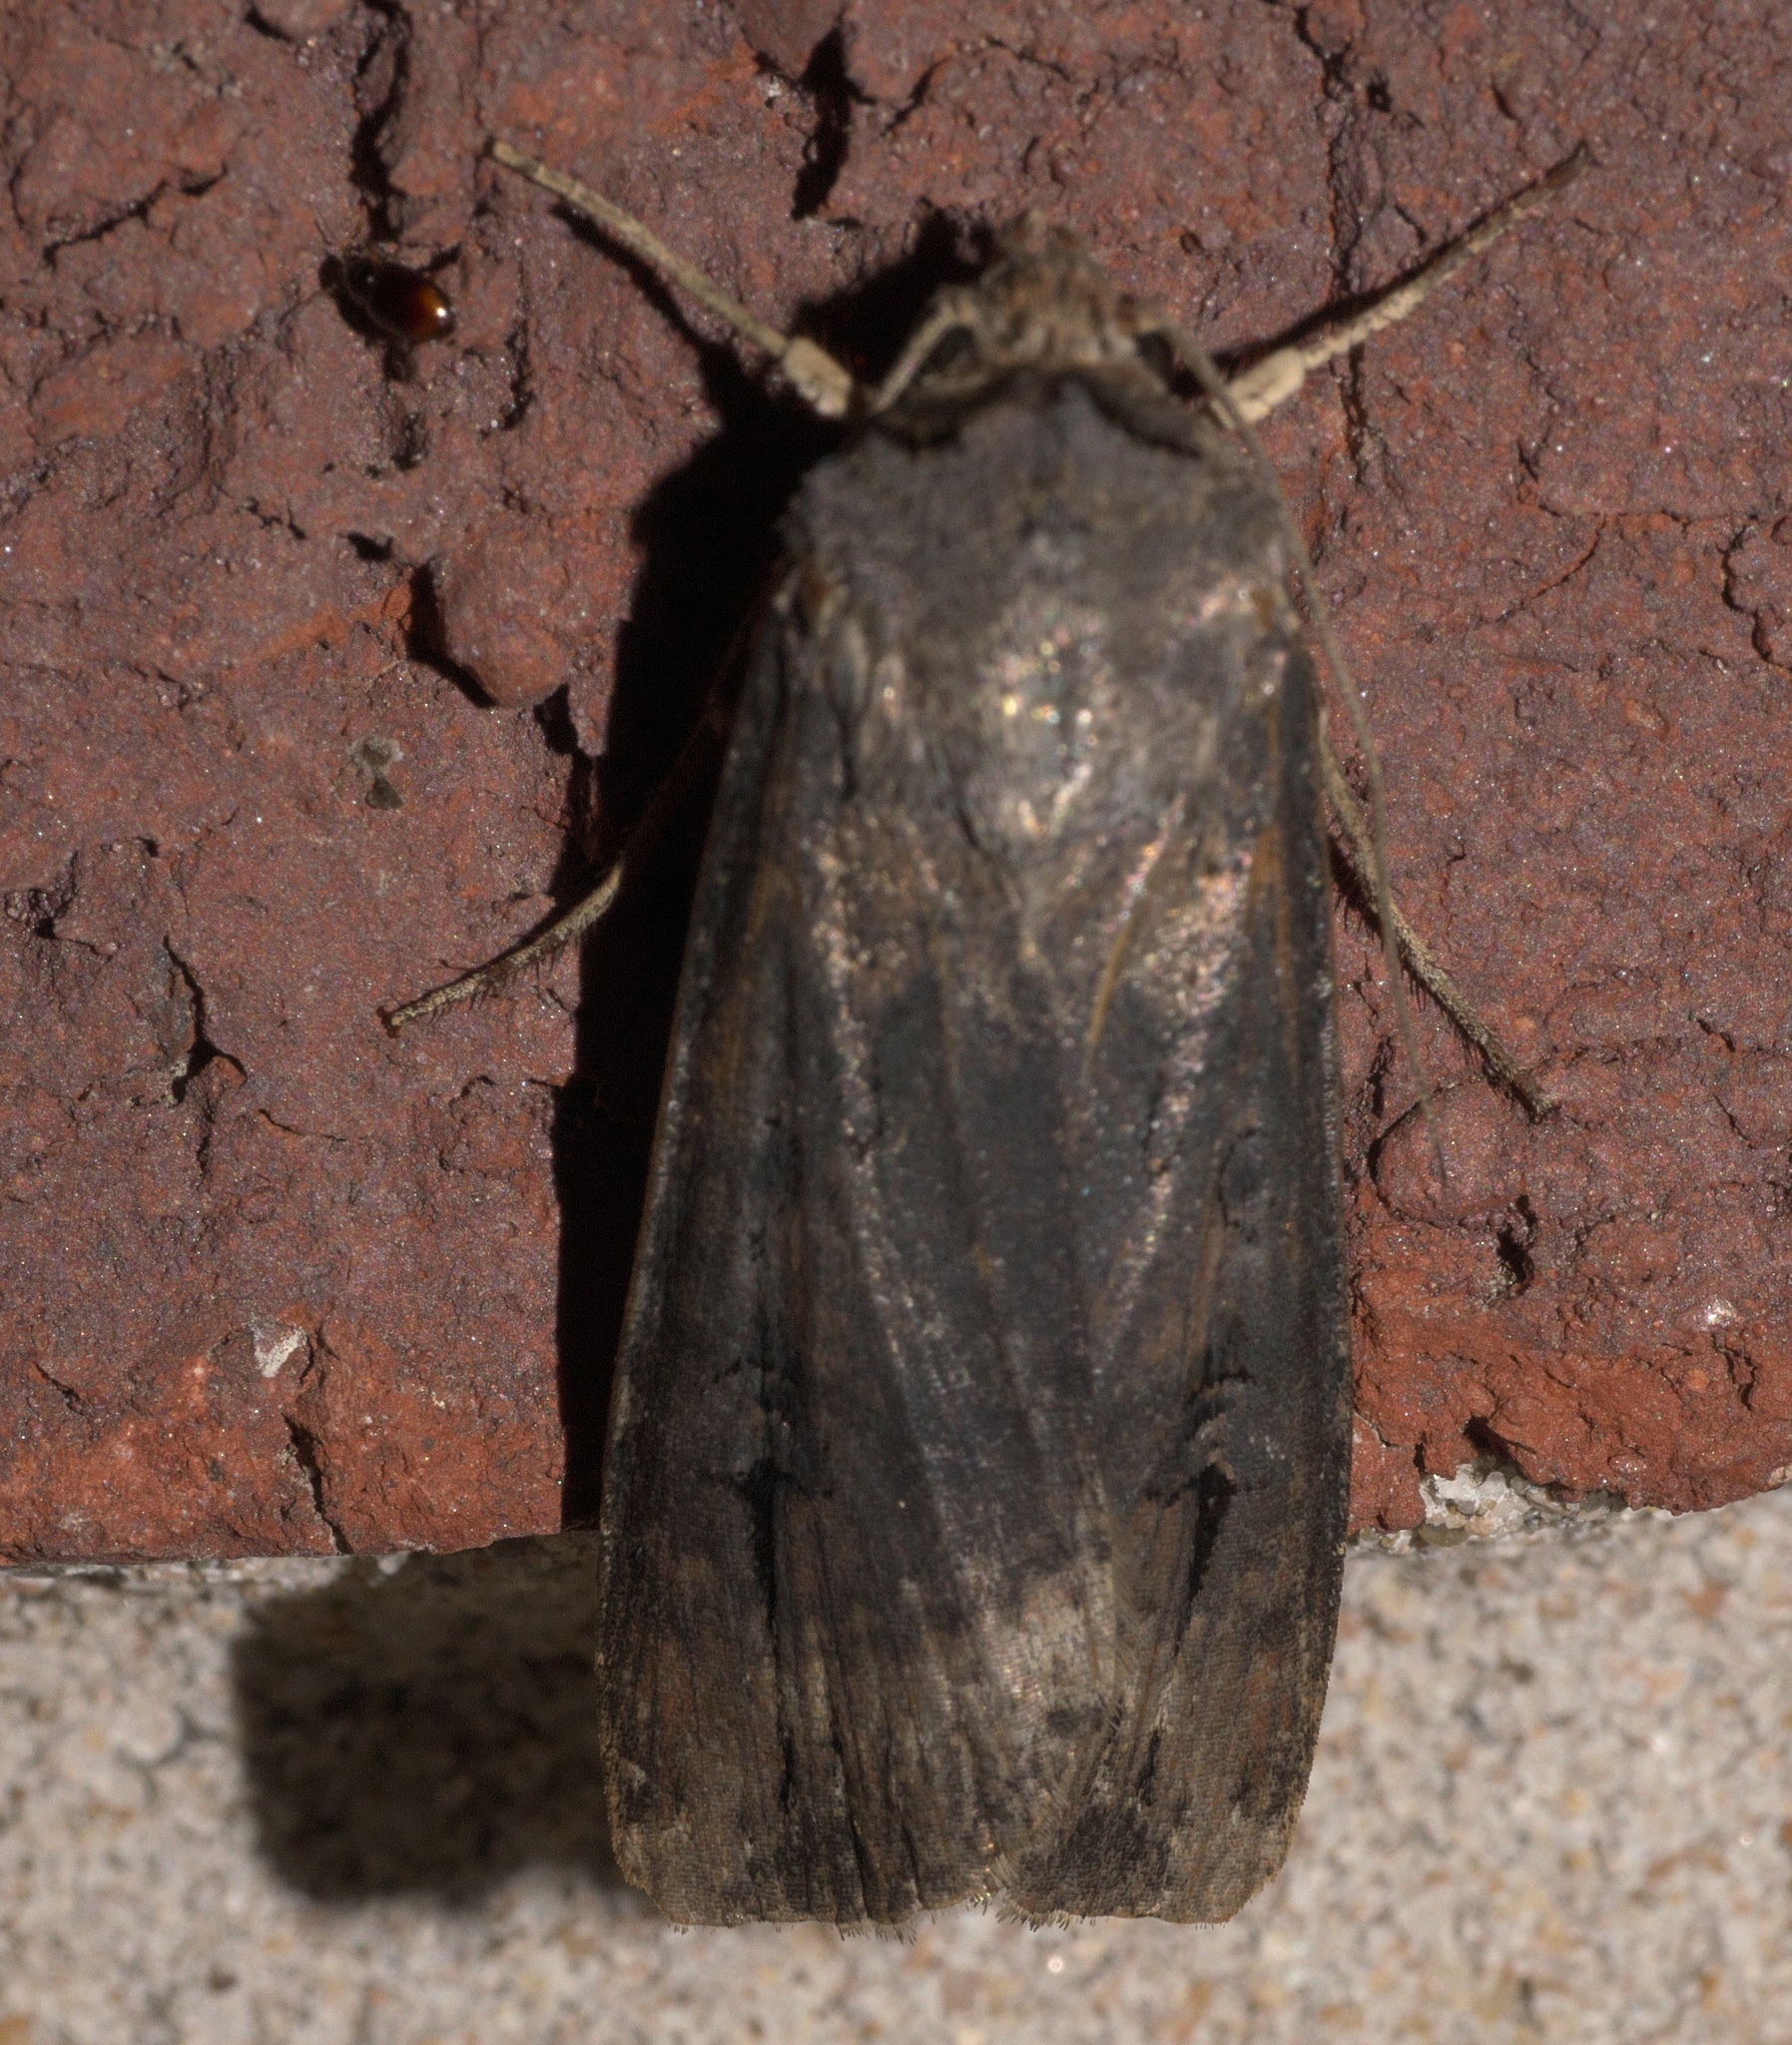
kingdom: Animalia
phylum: Arthropoda
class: Insecta
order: Lepidoptera
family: Noctuidae
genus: Agrotis
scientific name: Agrotis ipsilon
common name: Dark sword-grass
